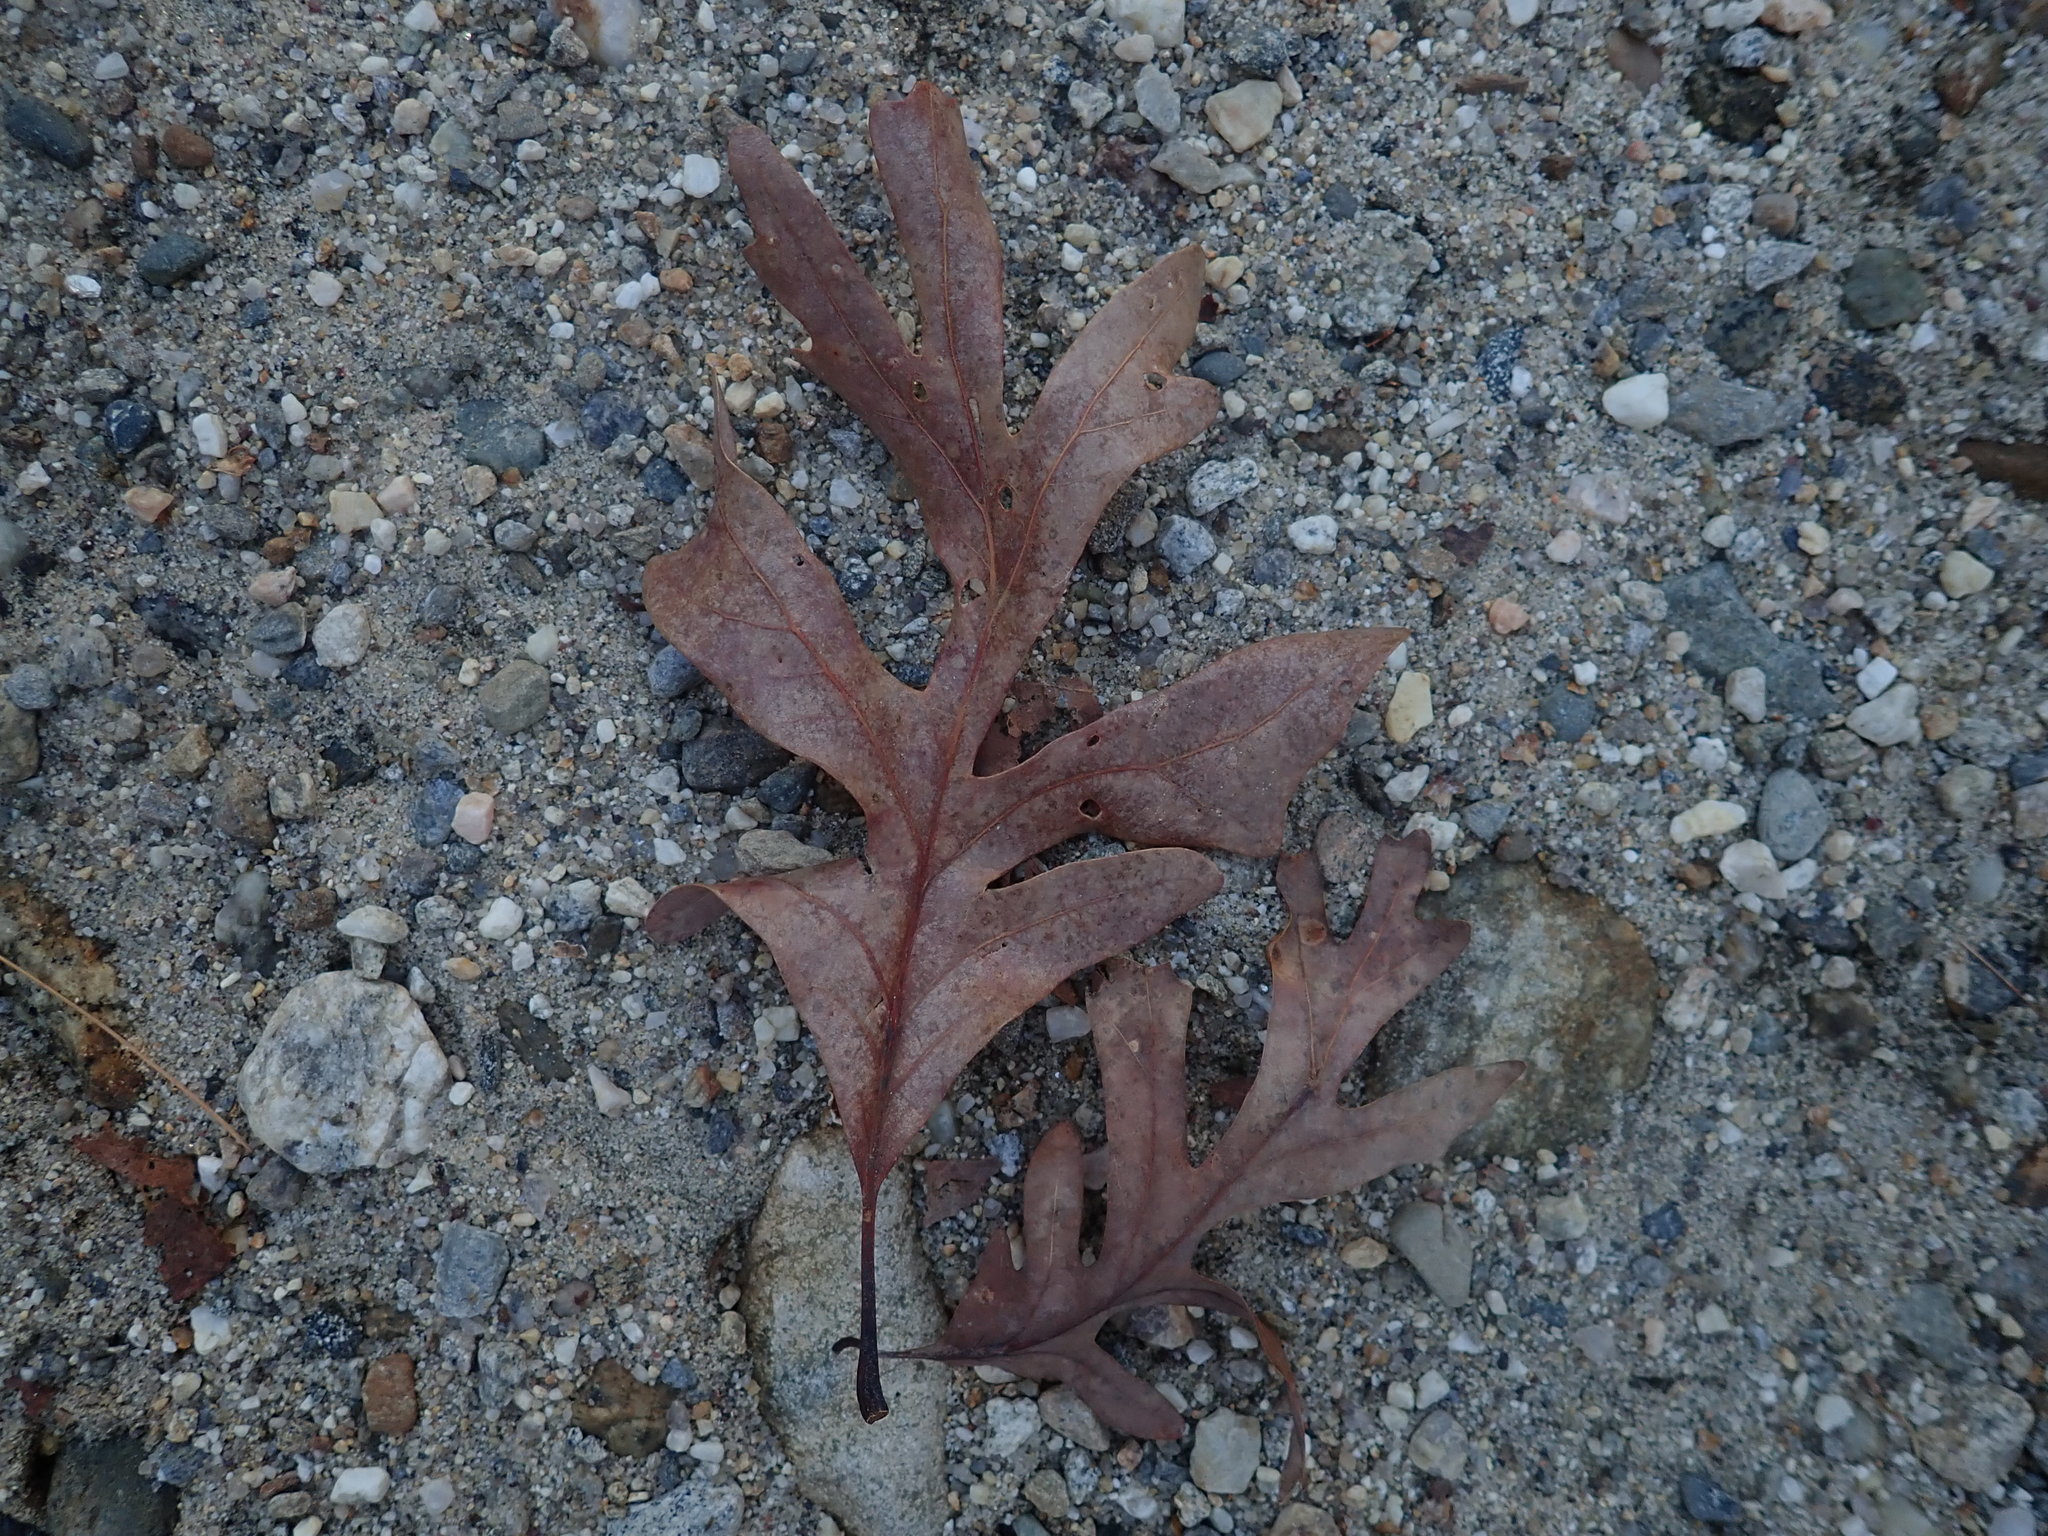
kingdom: Plantae
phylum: Tracheophyta
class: Magnoliopsida
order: Fagales
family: Fagaceae
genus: Quercus
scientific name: Quercus alba
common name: White oak
